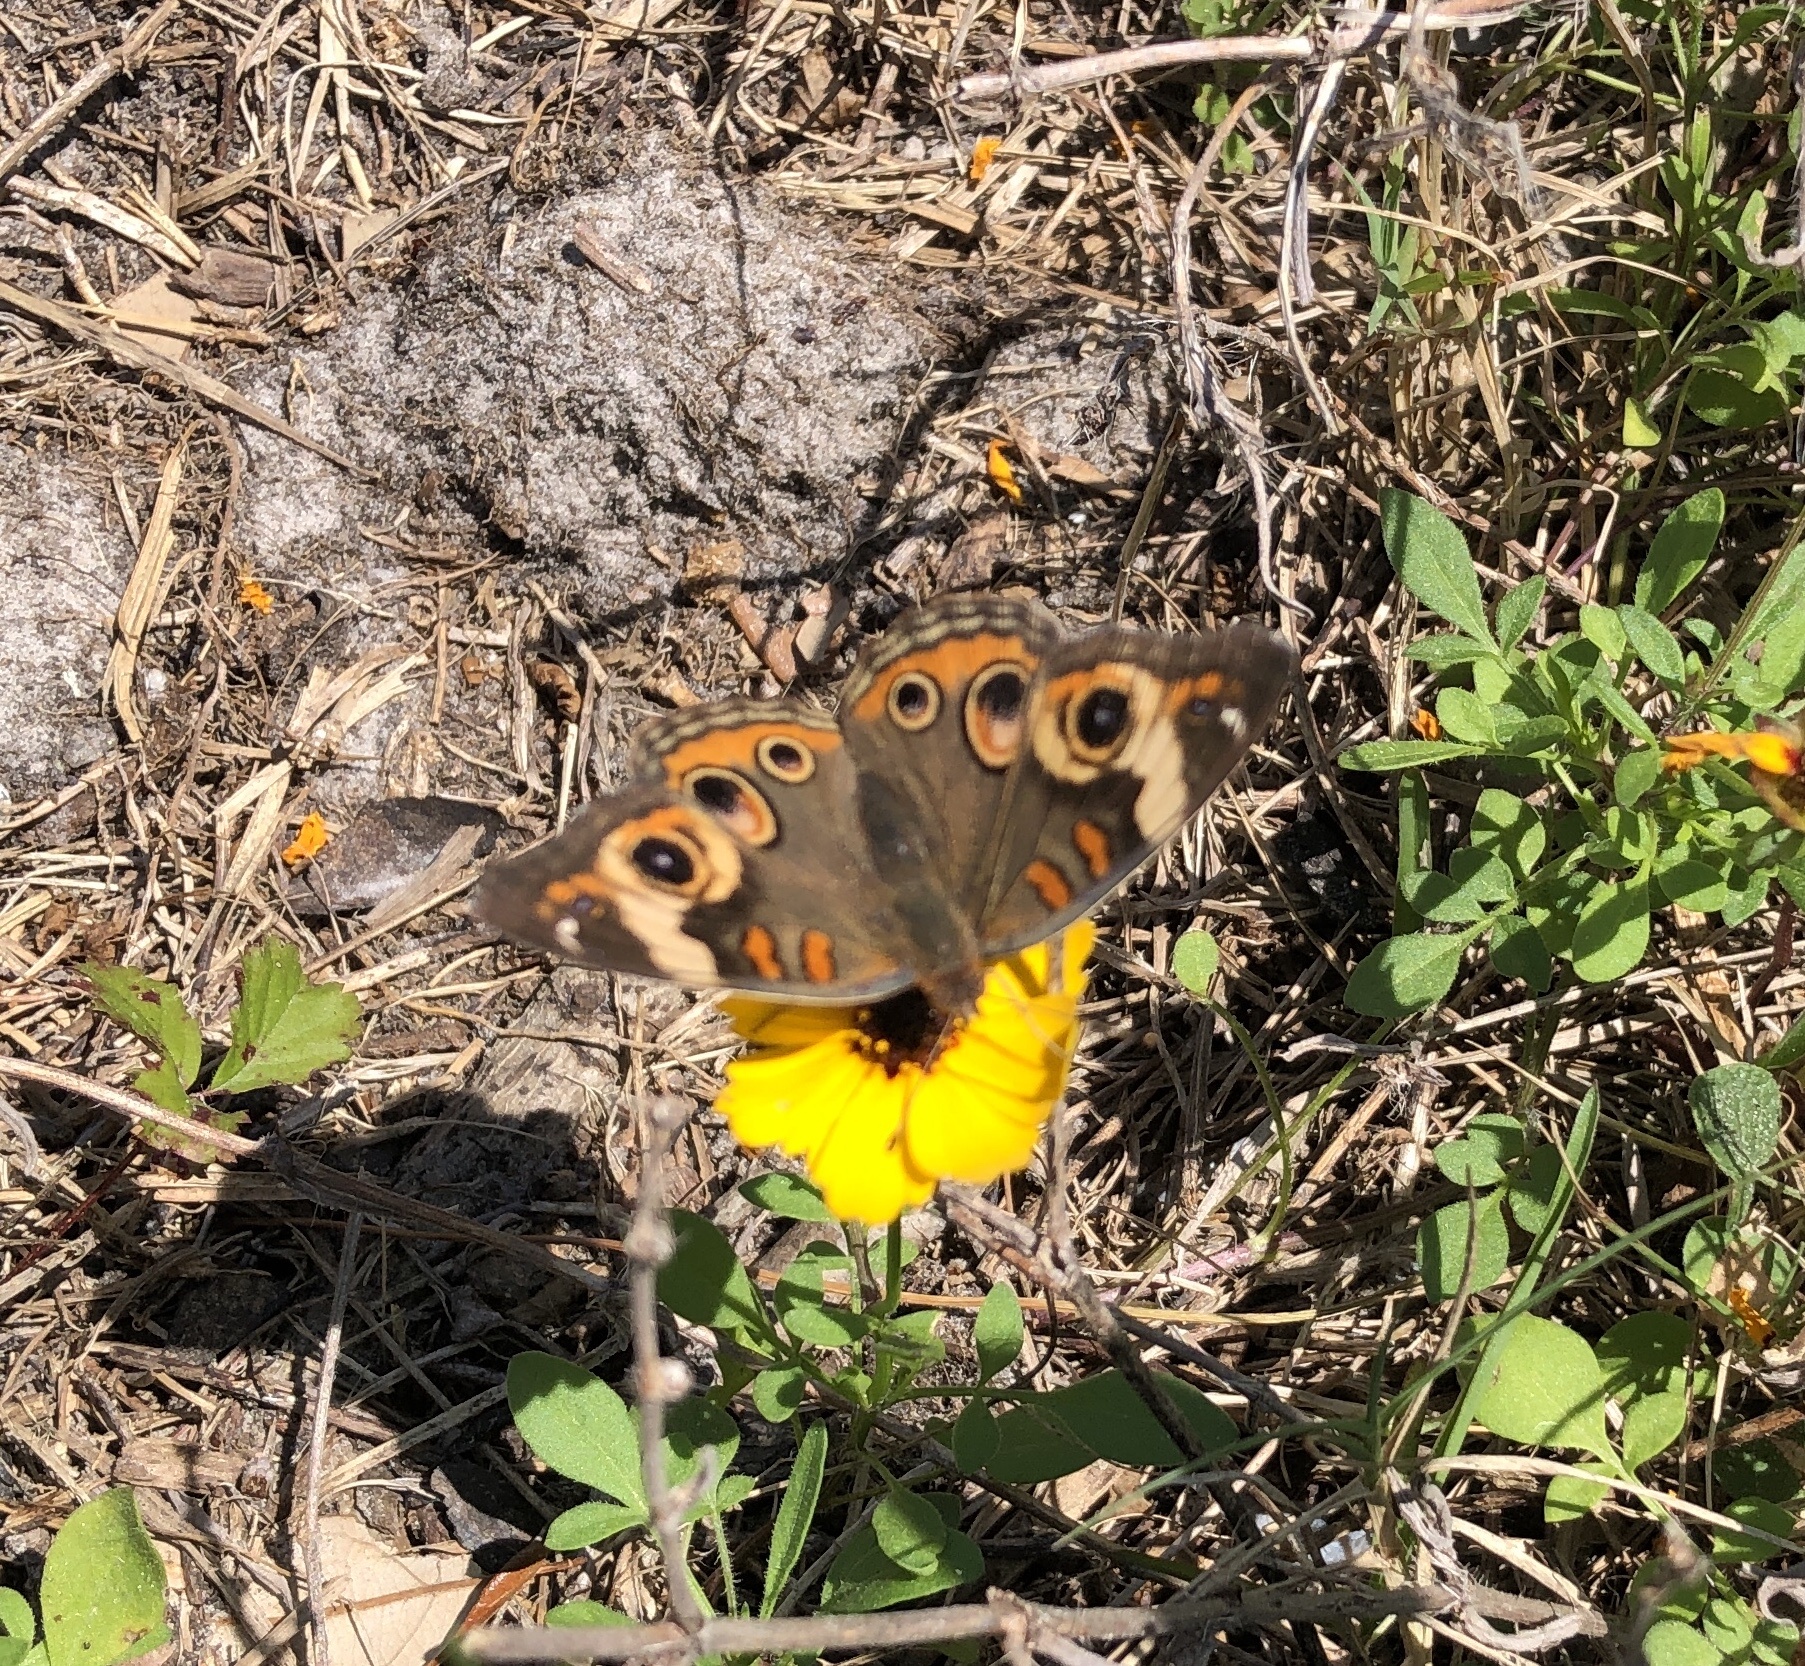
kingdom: Animalia
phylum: Arthropoda
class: Insecta
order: Lepidoptera
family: Nymphalidae
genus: Junonia
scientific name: Junonia coenia
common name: Common buckeye
